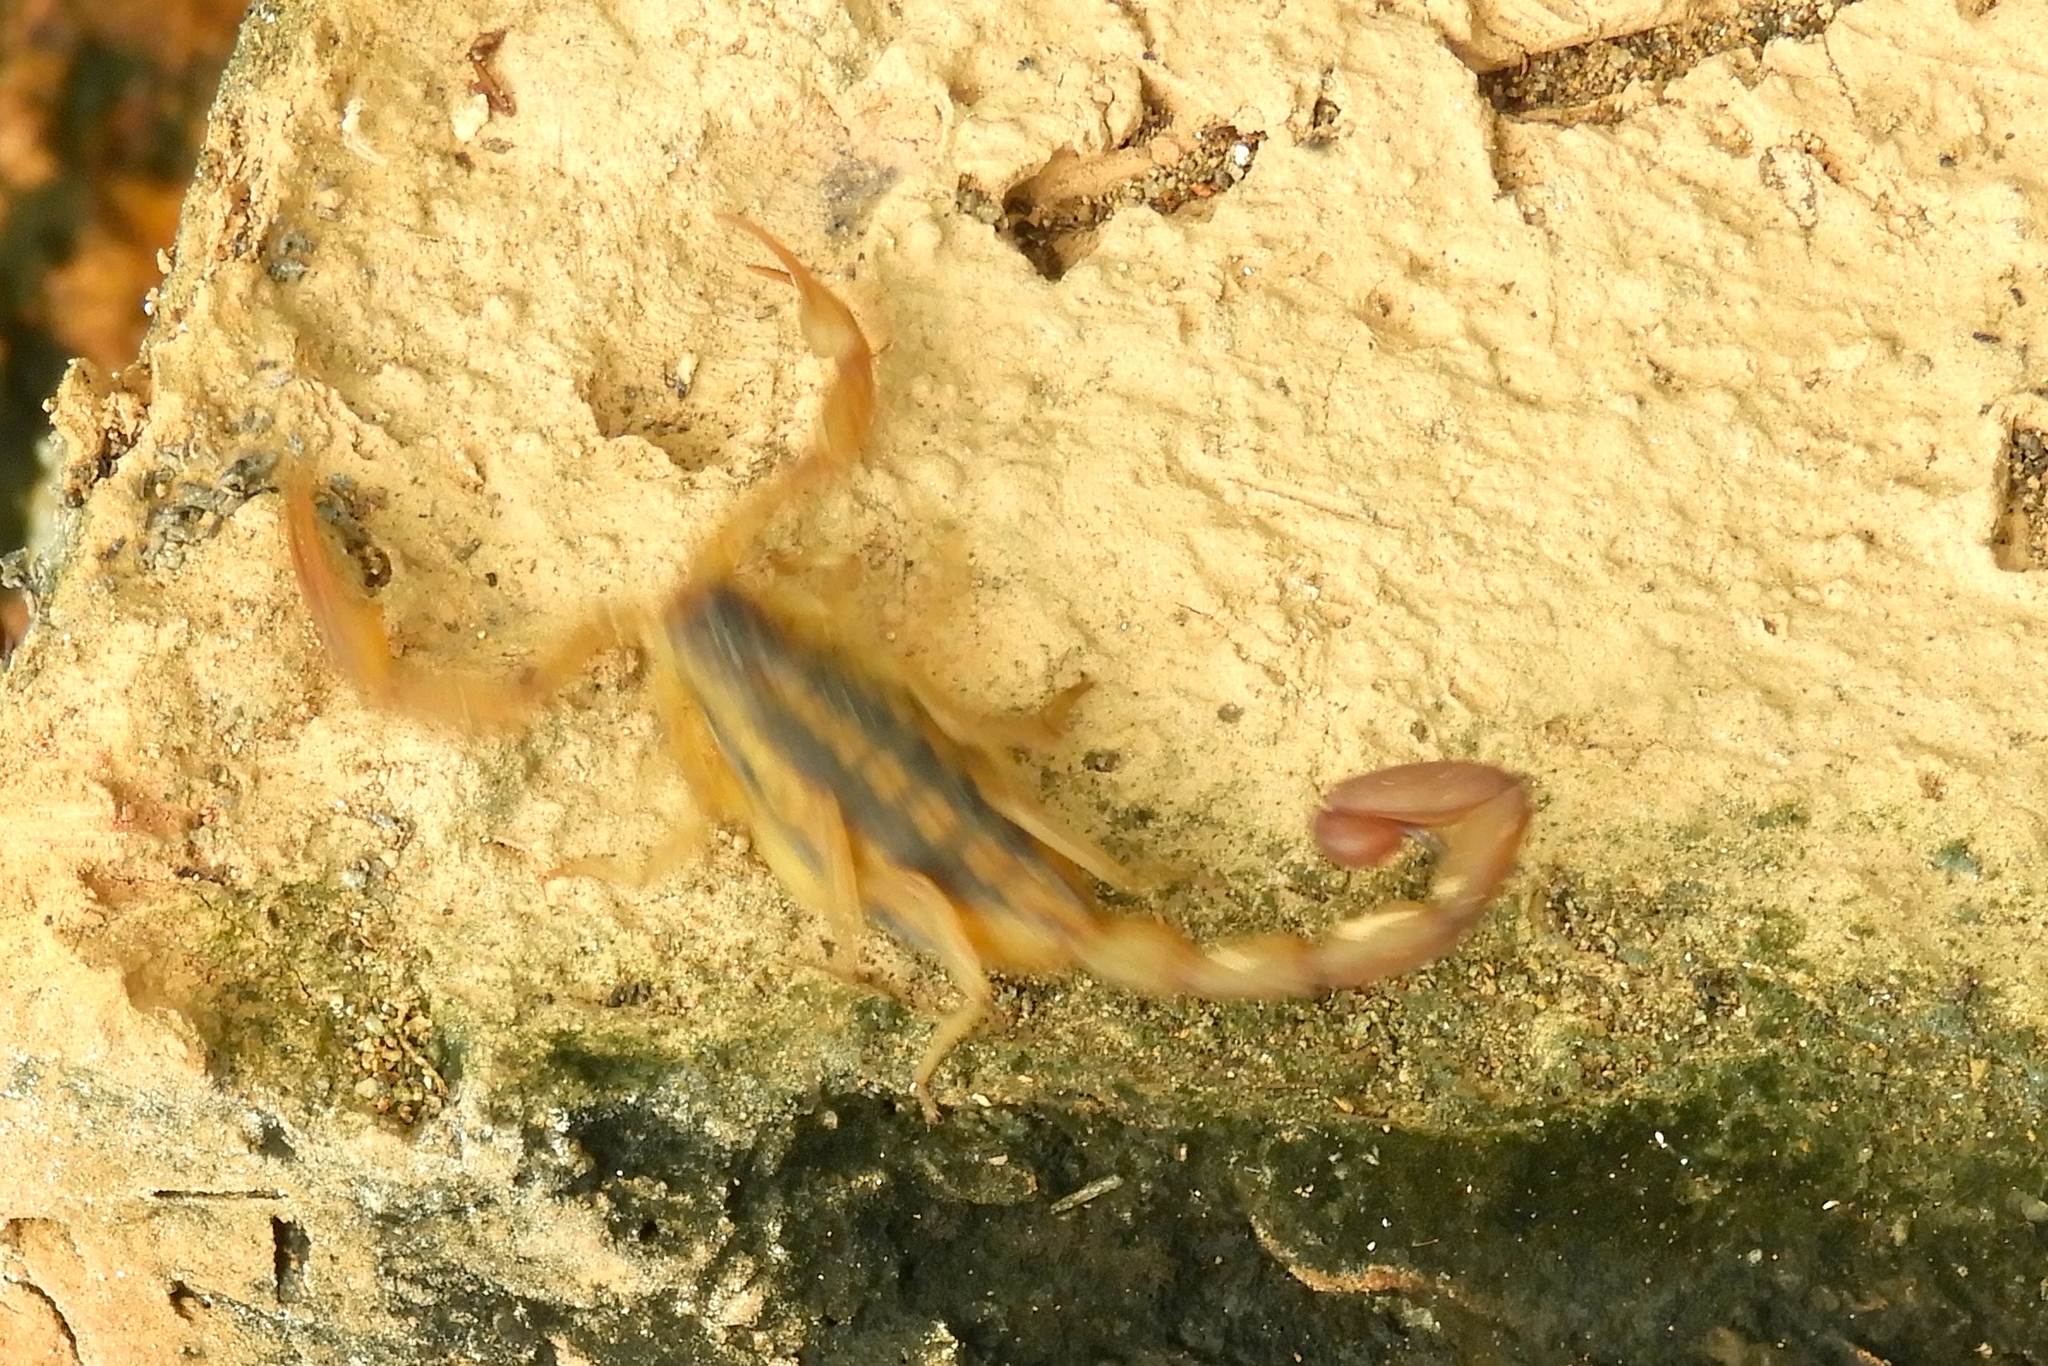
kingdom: Animalia
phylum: Arthropoda
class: Arachnida
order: Scorpiones
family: Buthidae
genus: Centruroides
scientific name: Centruroides baldazoi
